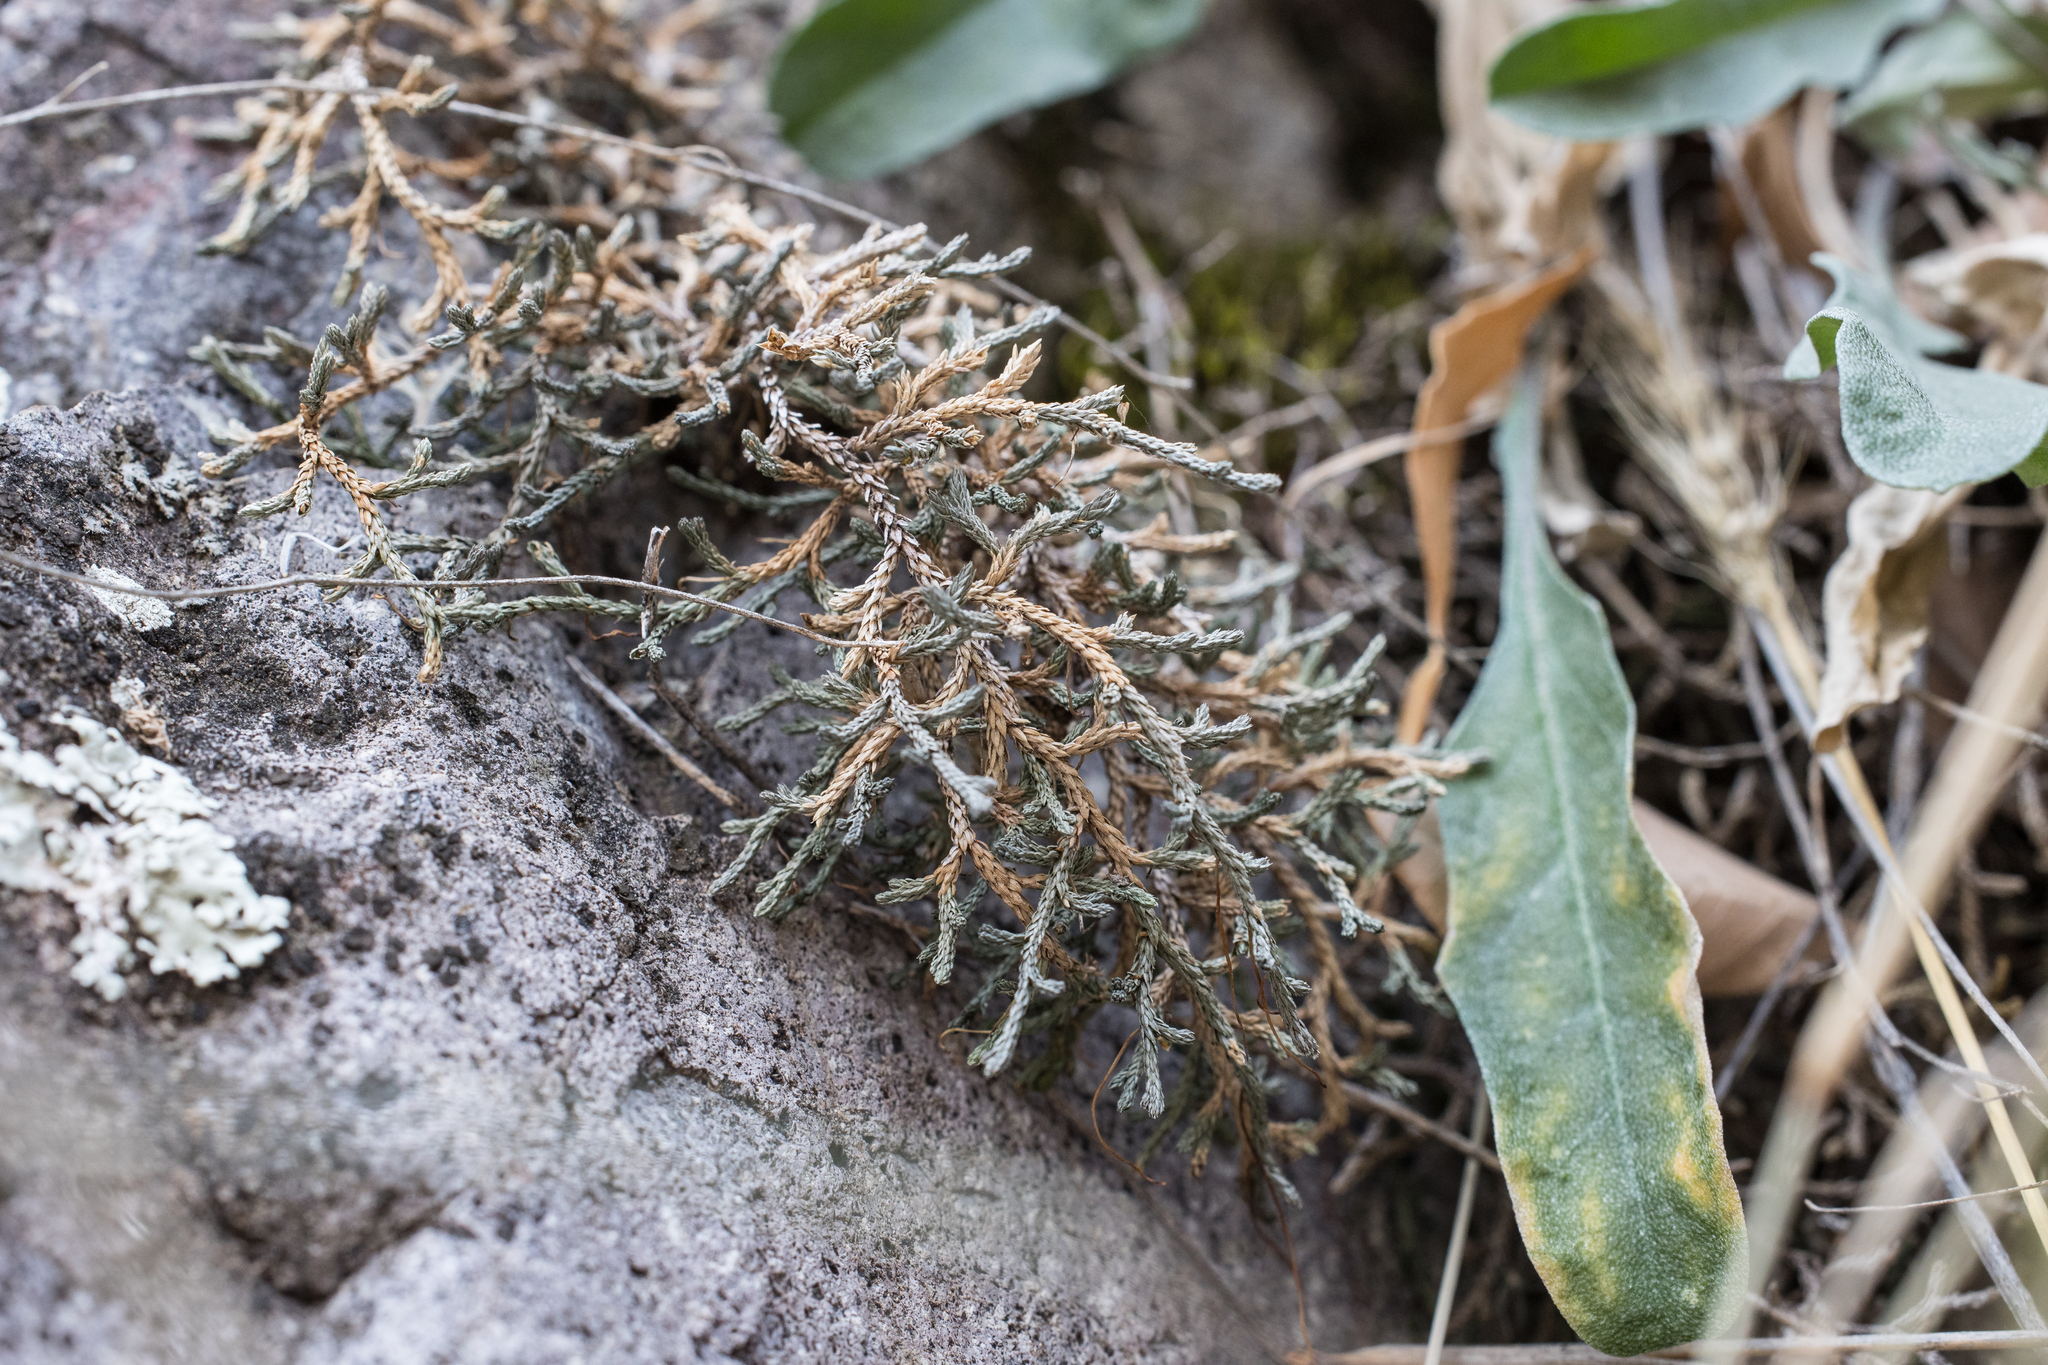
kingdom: Plantae
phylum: Tracheophyta
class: Lycopodiopsida
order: Selaginellales
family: Selaginellaceae
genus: Selaginella
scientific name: Selaginella mutica
